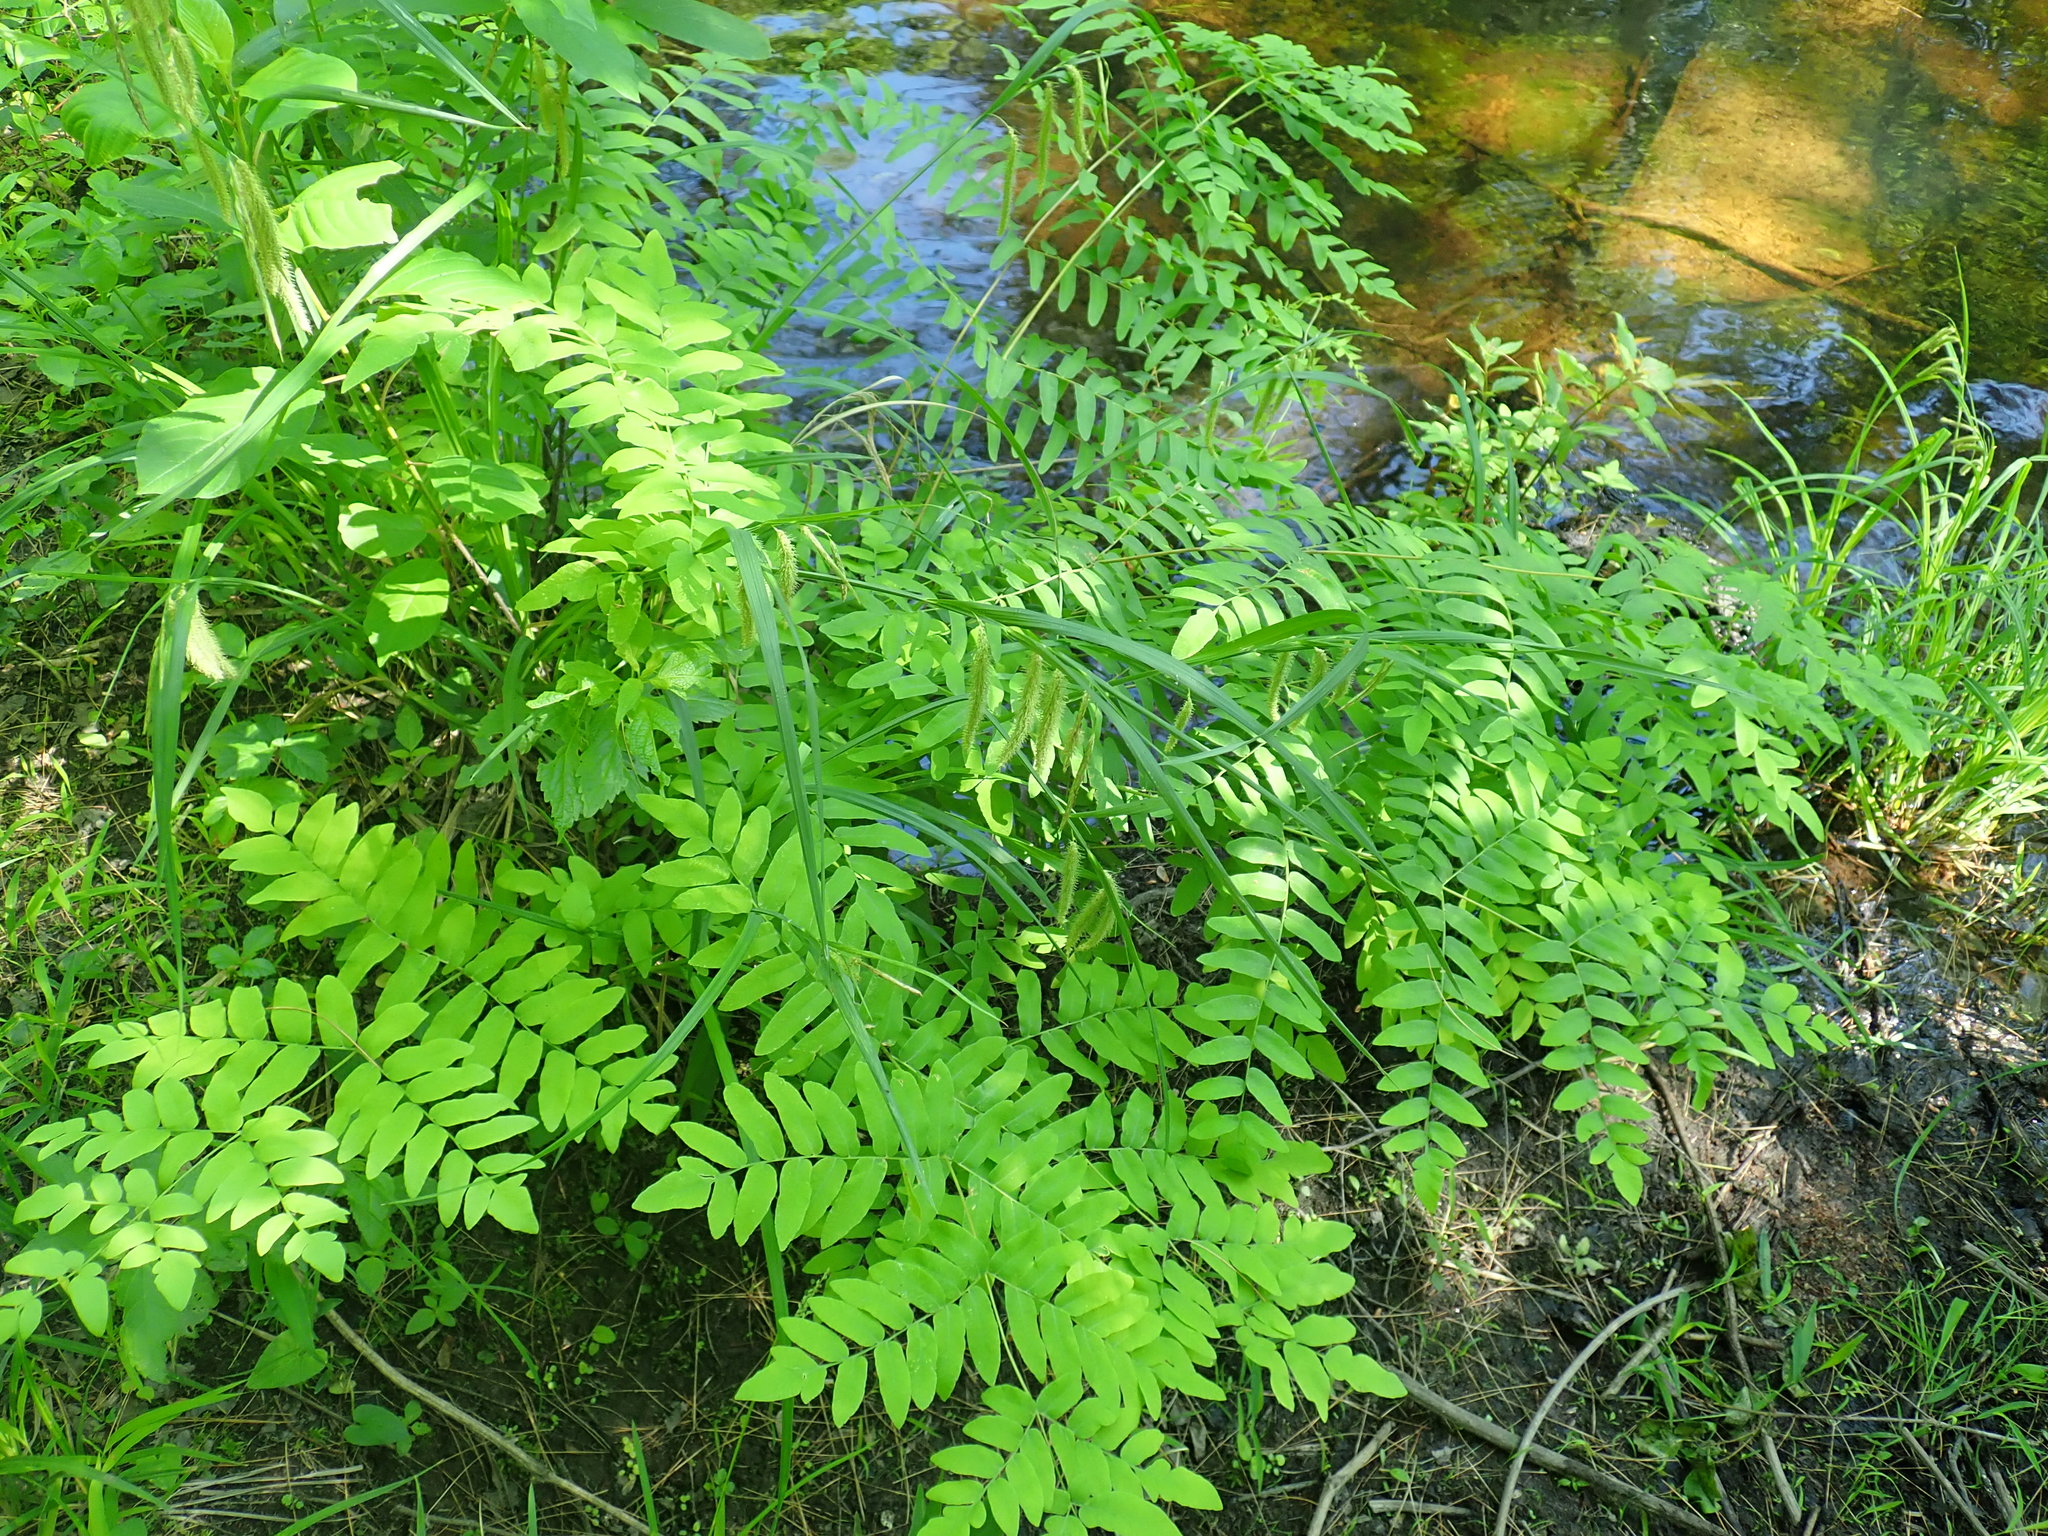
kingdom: Plantae
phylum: Tracheophyta
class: Polypodiopsida
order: Osmundales
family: Osmundaceae
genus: Osmunda
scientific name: Osmunda spectabilis
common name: American royal fern
